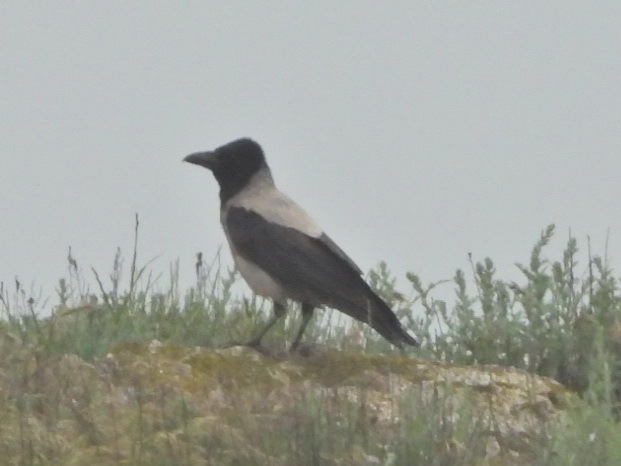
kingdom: Animalia
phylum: Chordata
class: Aves
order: Passeriformes
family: Corvidae
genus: Corvus
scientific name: Corvus cornix
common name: Hooded crow
